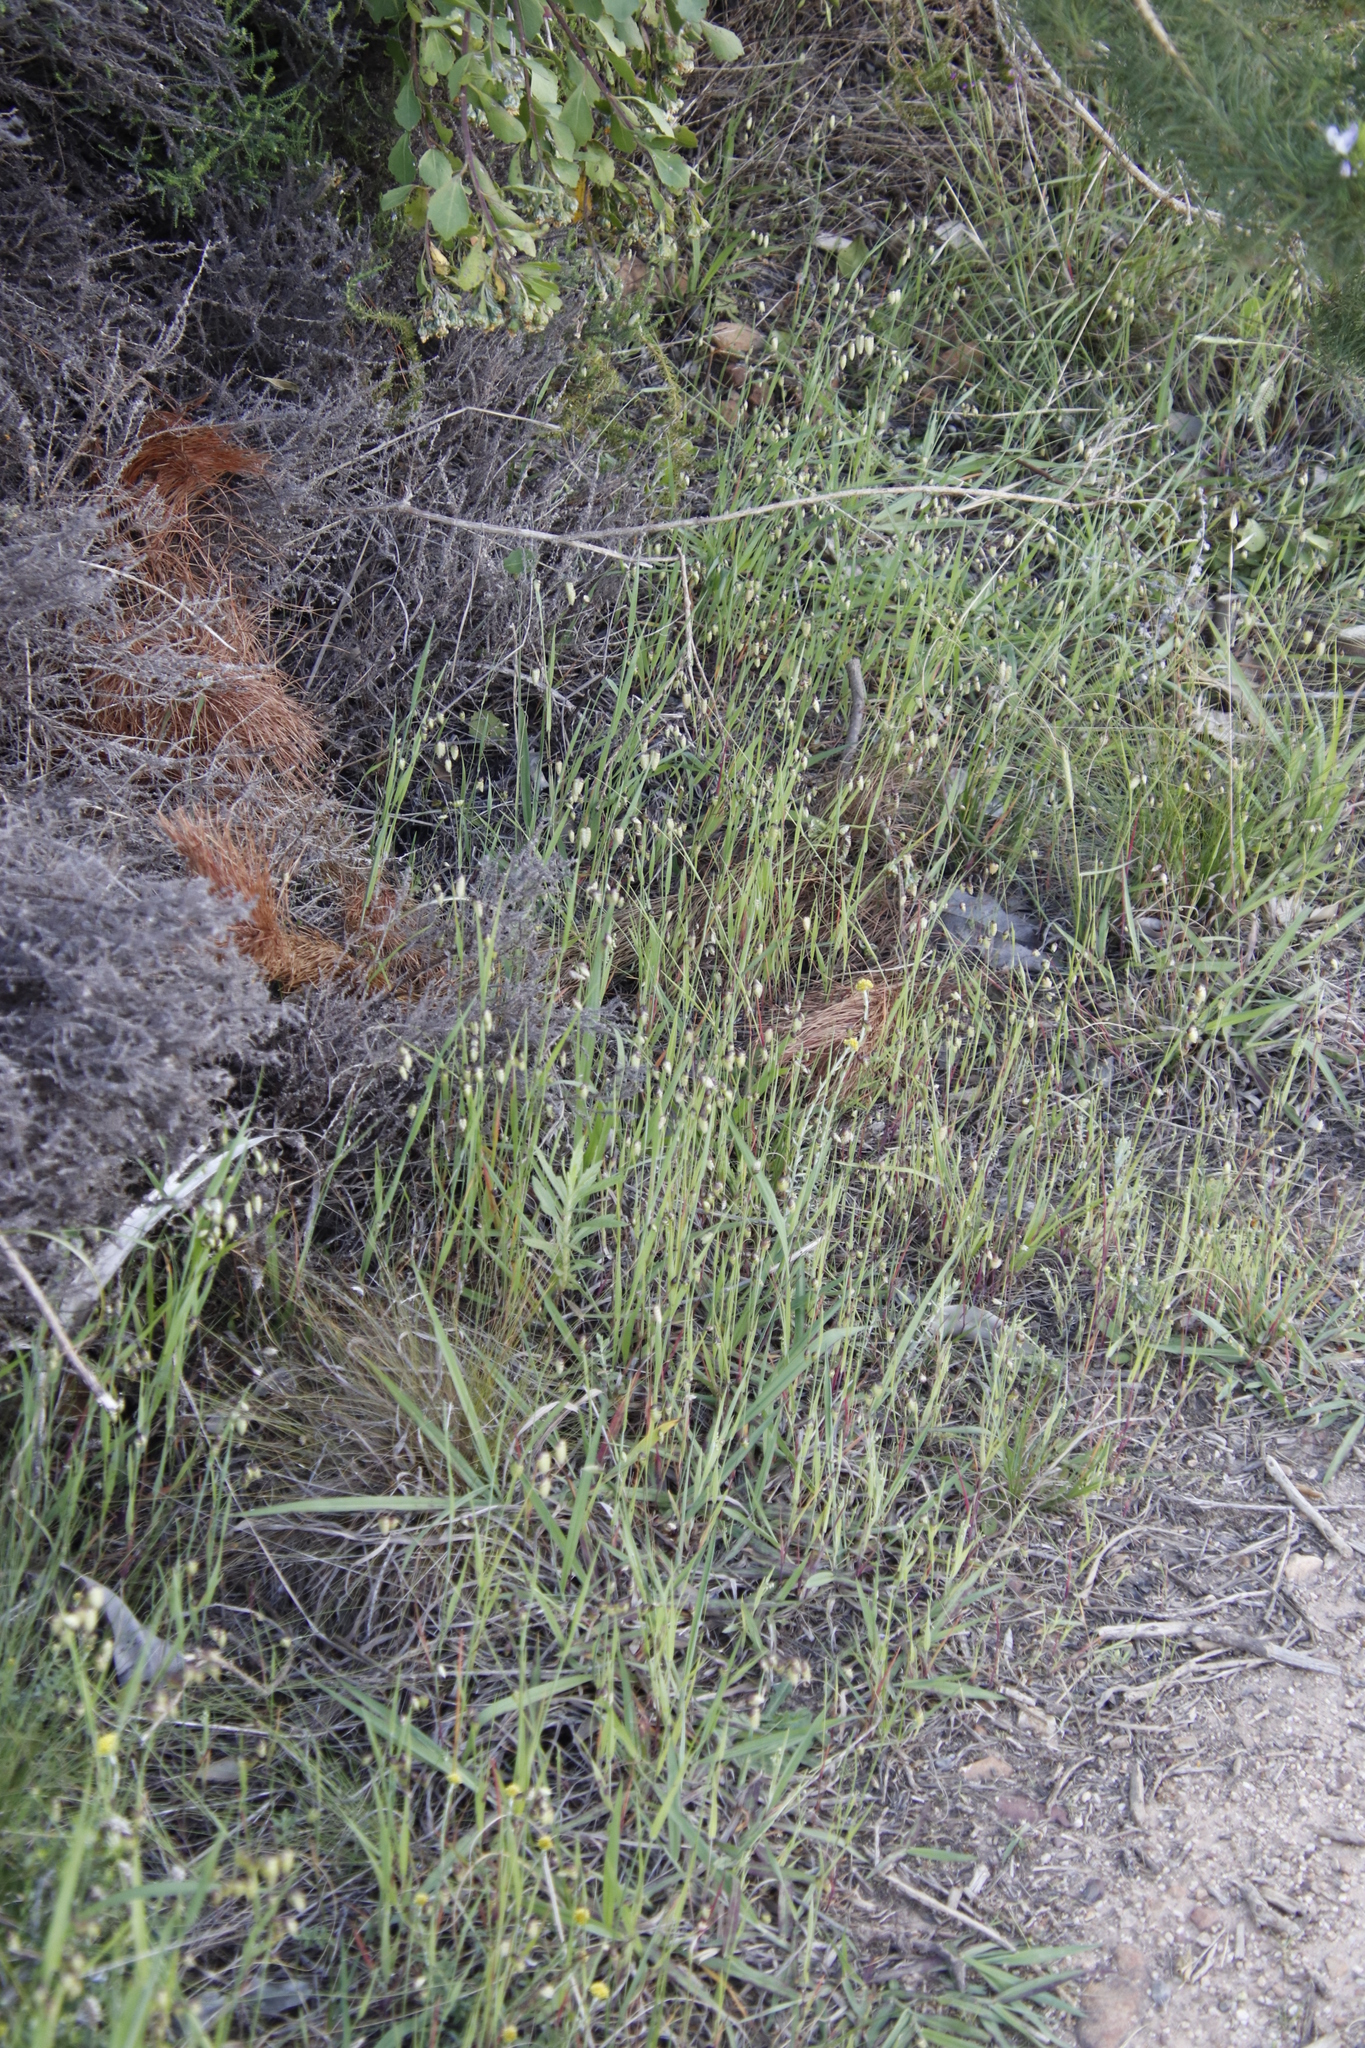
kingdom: Plantae
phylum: Tracheophyta
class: Liliopsida
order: Poales
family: Poaceae
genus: Briza
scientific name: Briza maxima
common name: Big quakinggrass
